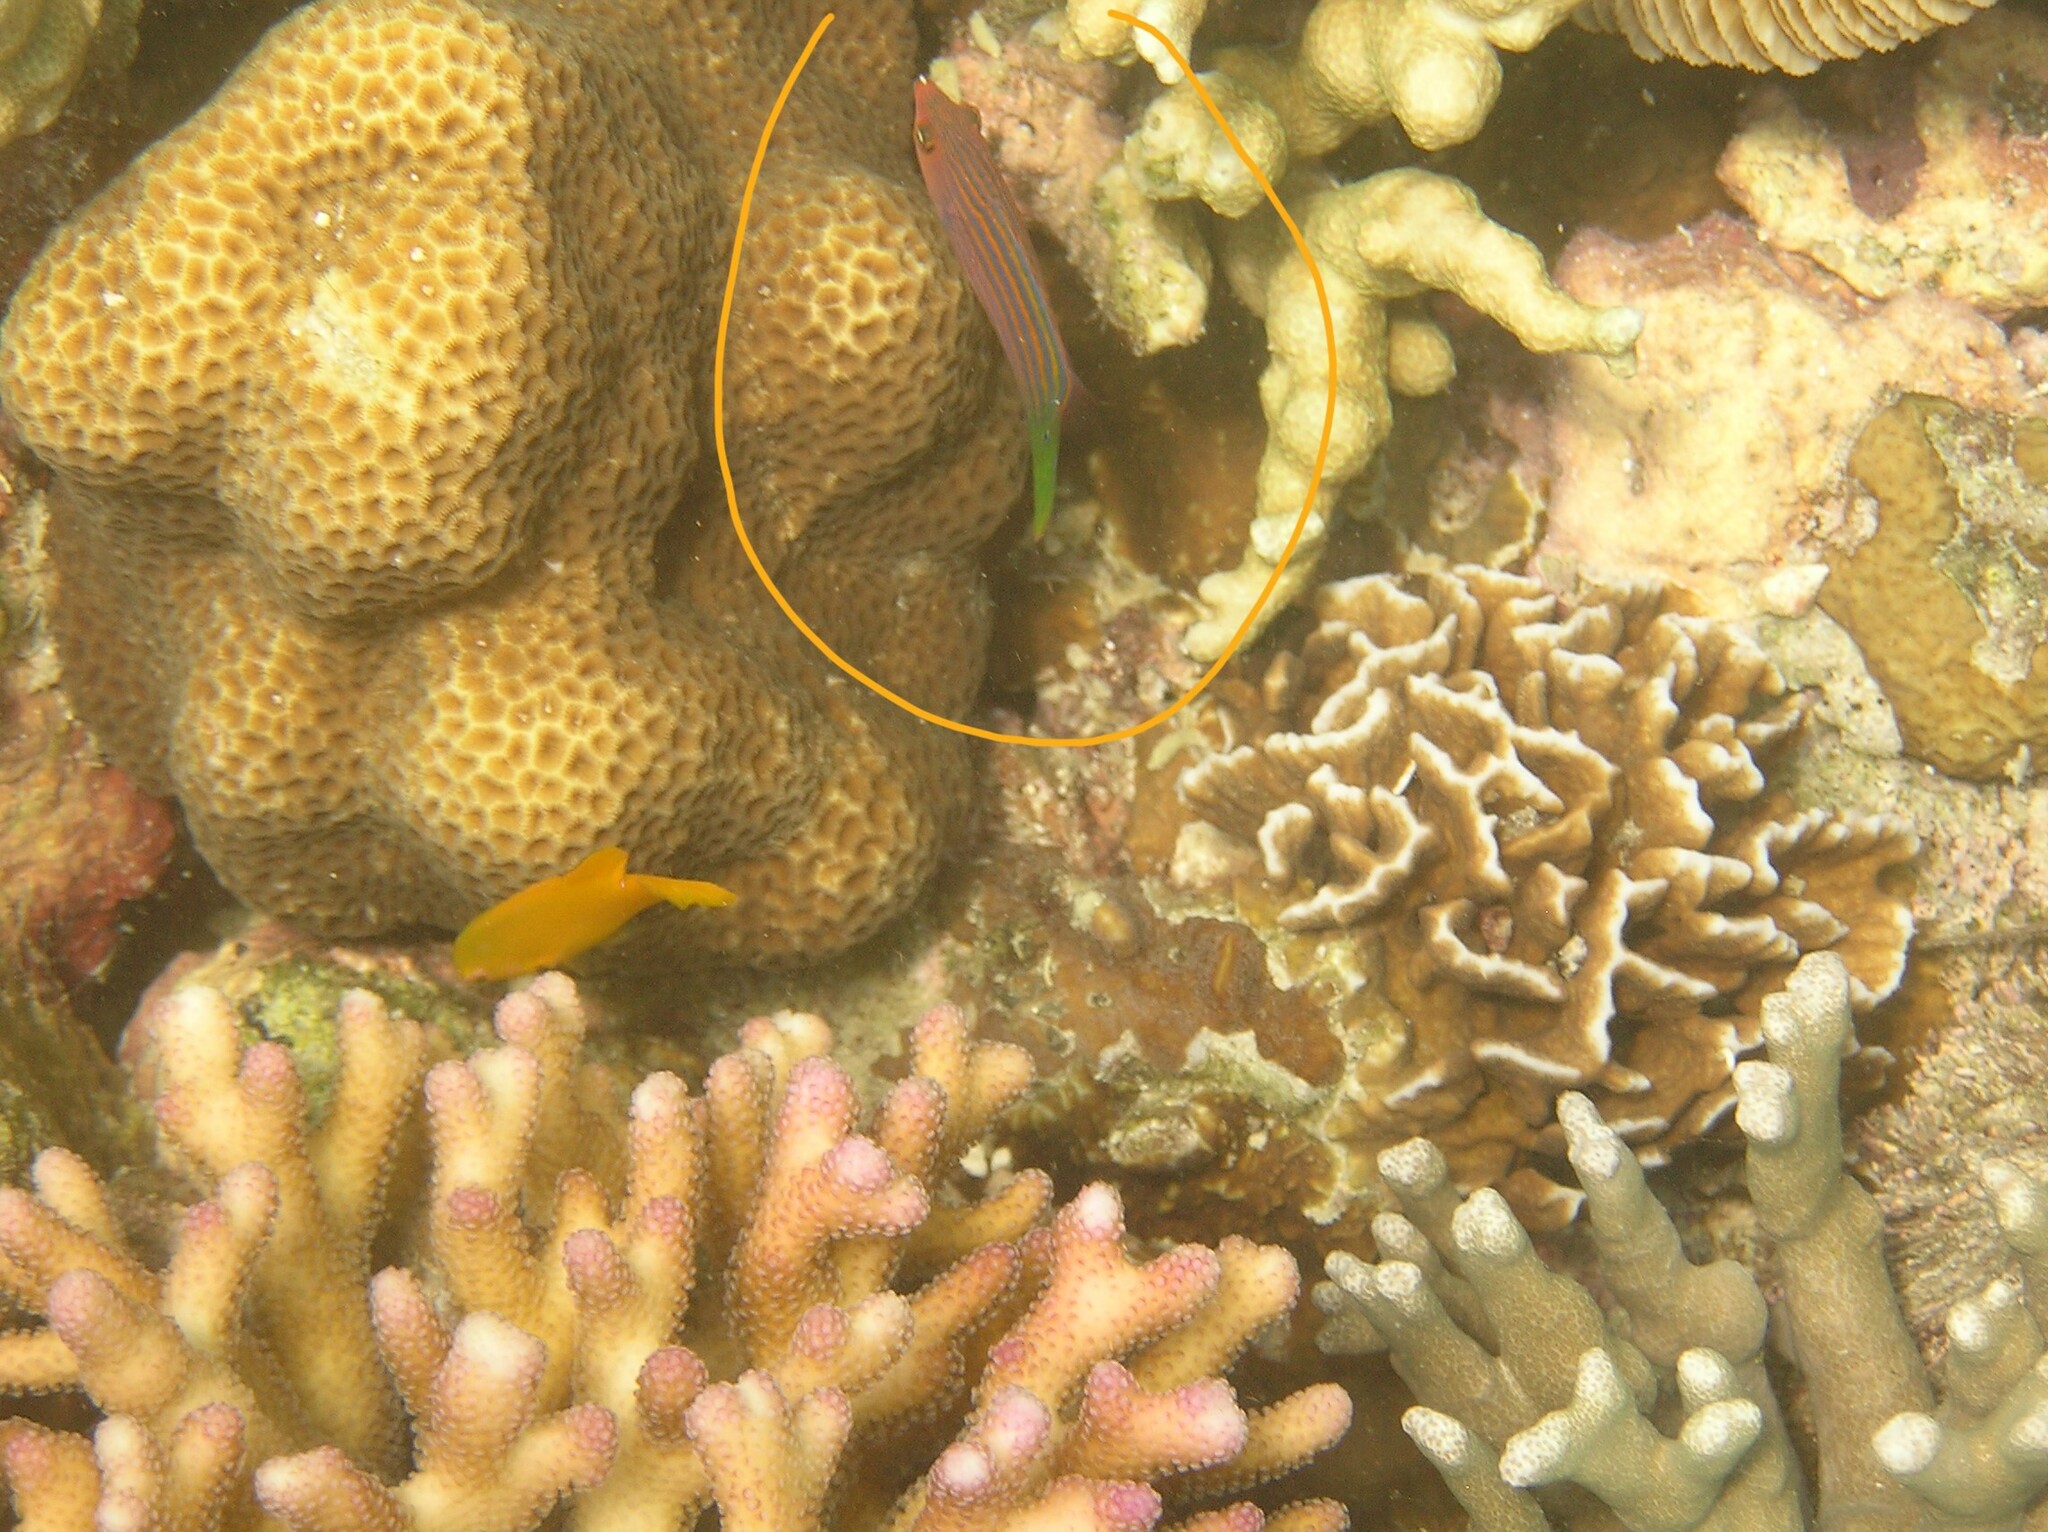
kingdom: Animalia
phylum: Chordata
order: Perciformes
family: Labridae
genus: Pseudocheilinus
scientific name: Pseudocheilinus hexataenia
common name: Sixline wrasse
